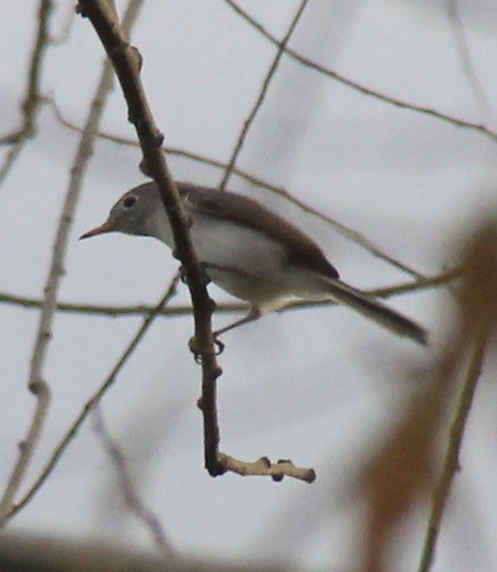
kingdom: Animalia
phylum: Chordata
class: Aves
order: Passeriformes
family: Polioptilidae
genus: Polioptila
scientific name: Polioptila caerulea
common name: Blue-gray gnatcatcher
